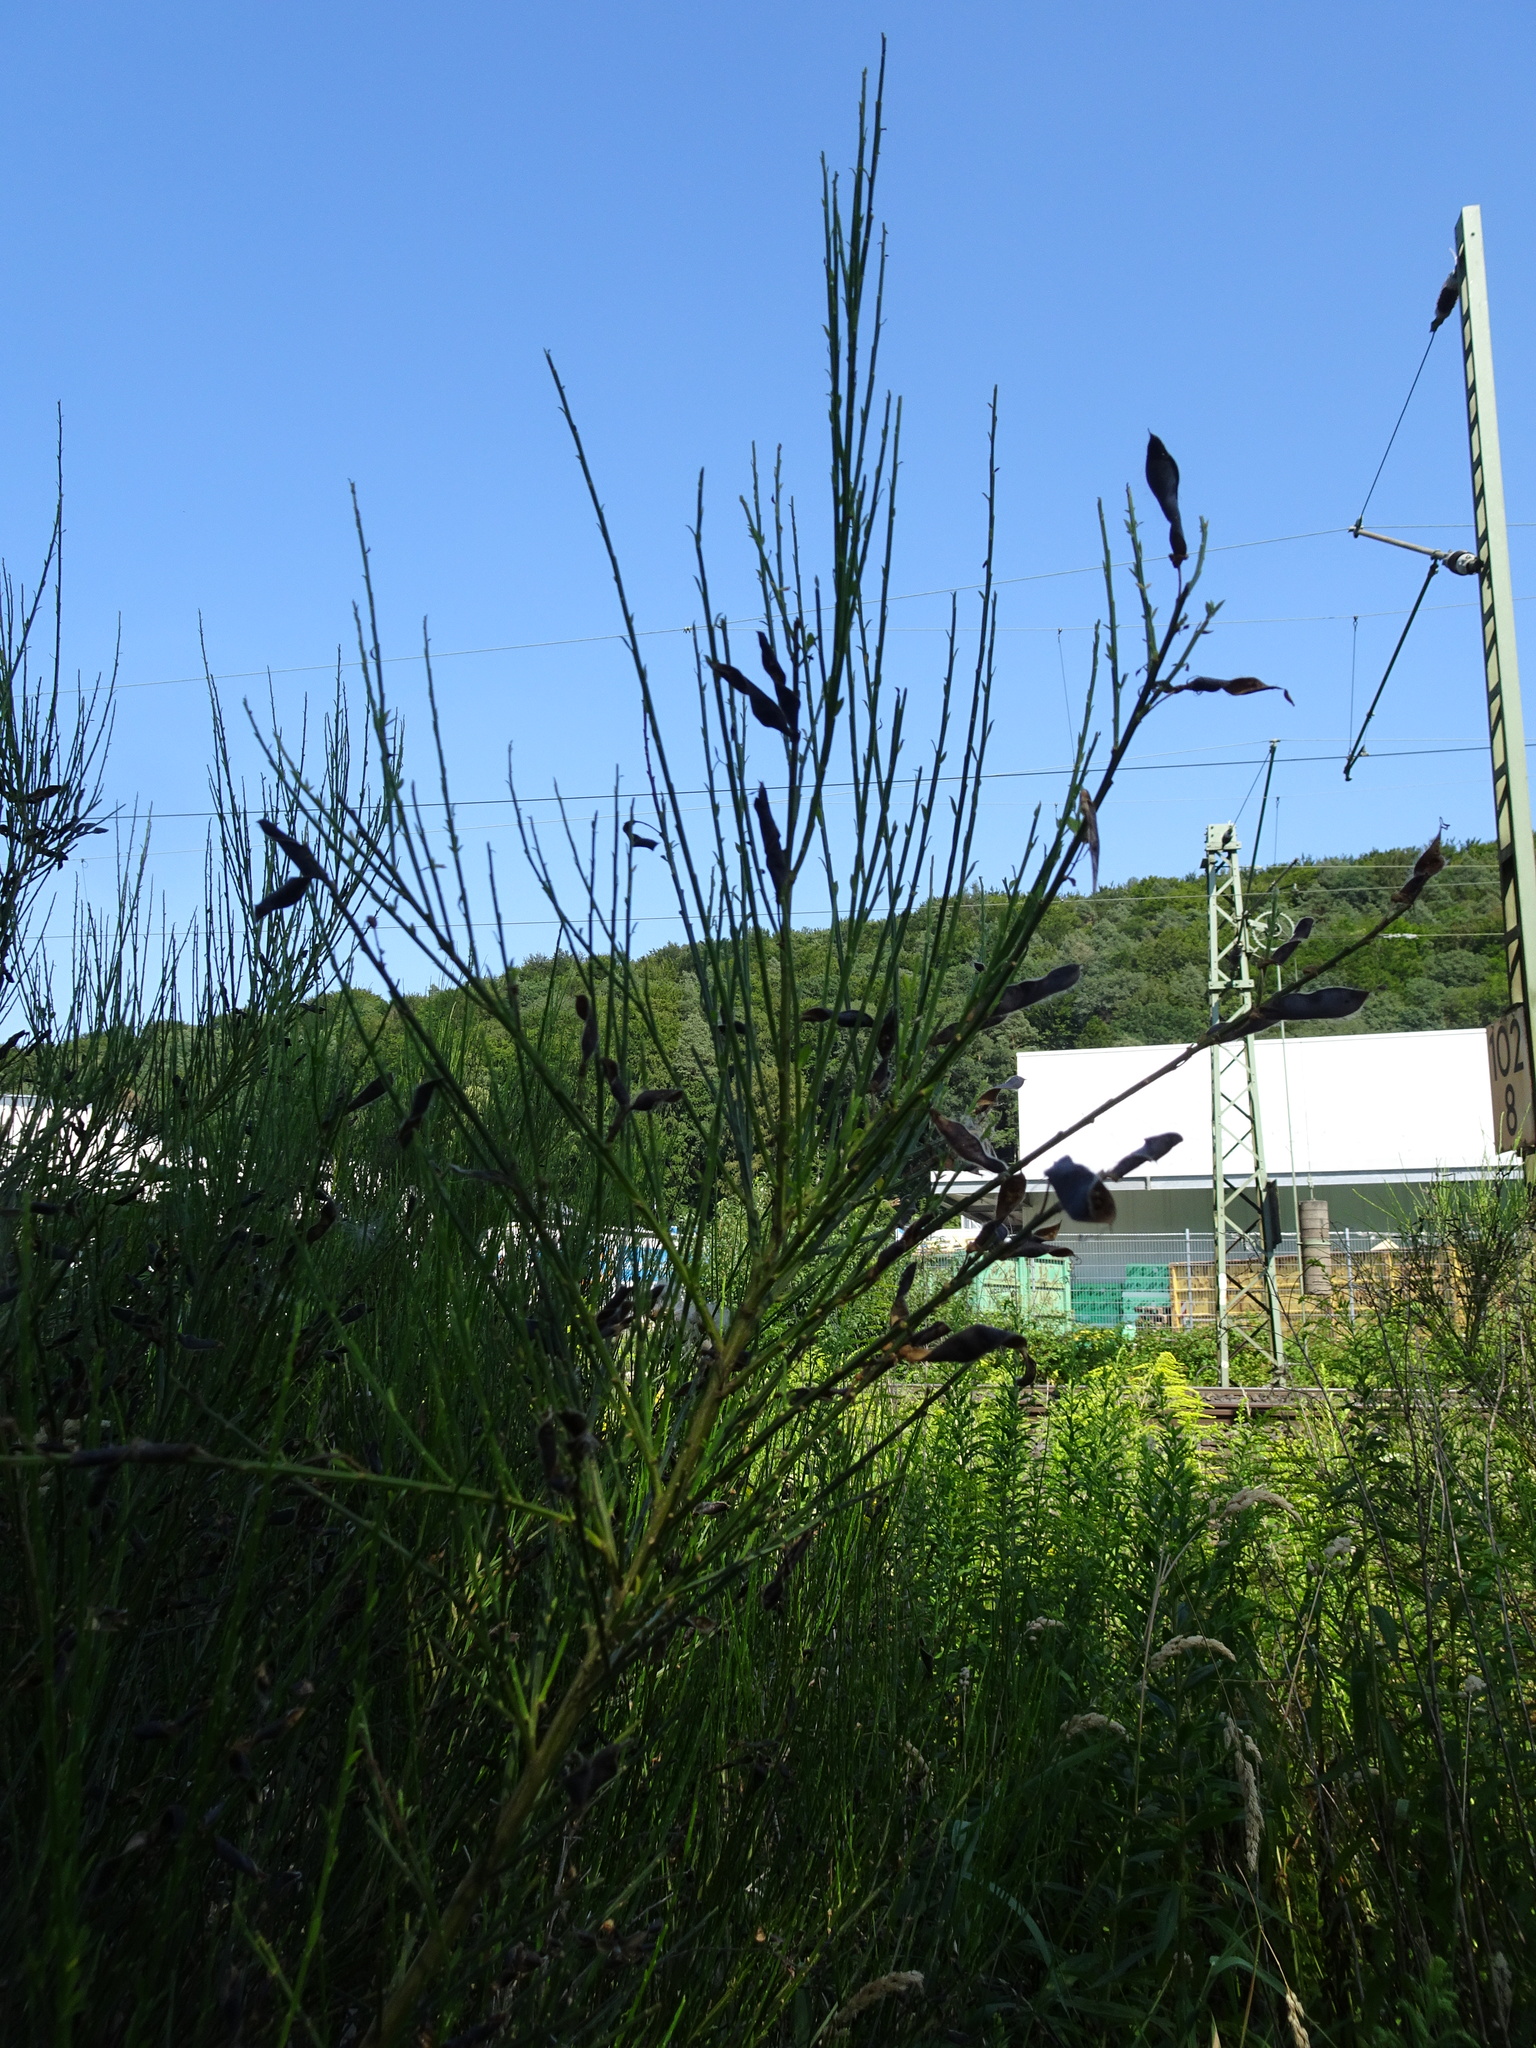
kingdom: Plantae
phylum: Tracheophyta
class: Magnoliopsida
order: Fabales
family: Fabaceae
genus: Cytisus
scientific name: Cytisus scoparius
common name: Scotch broom
